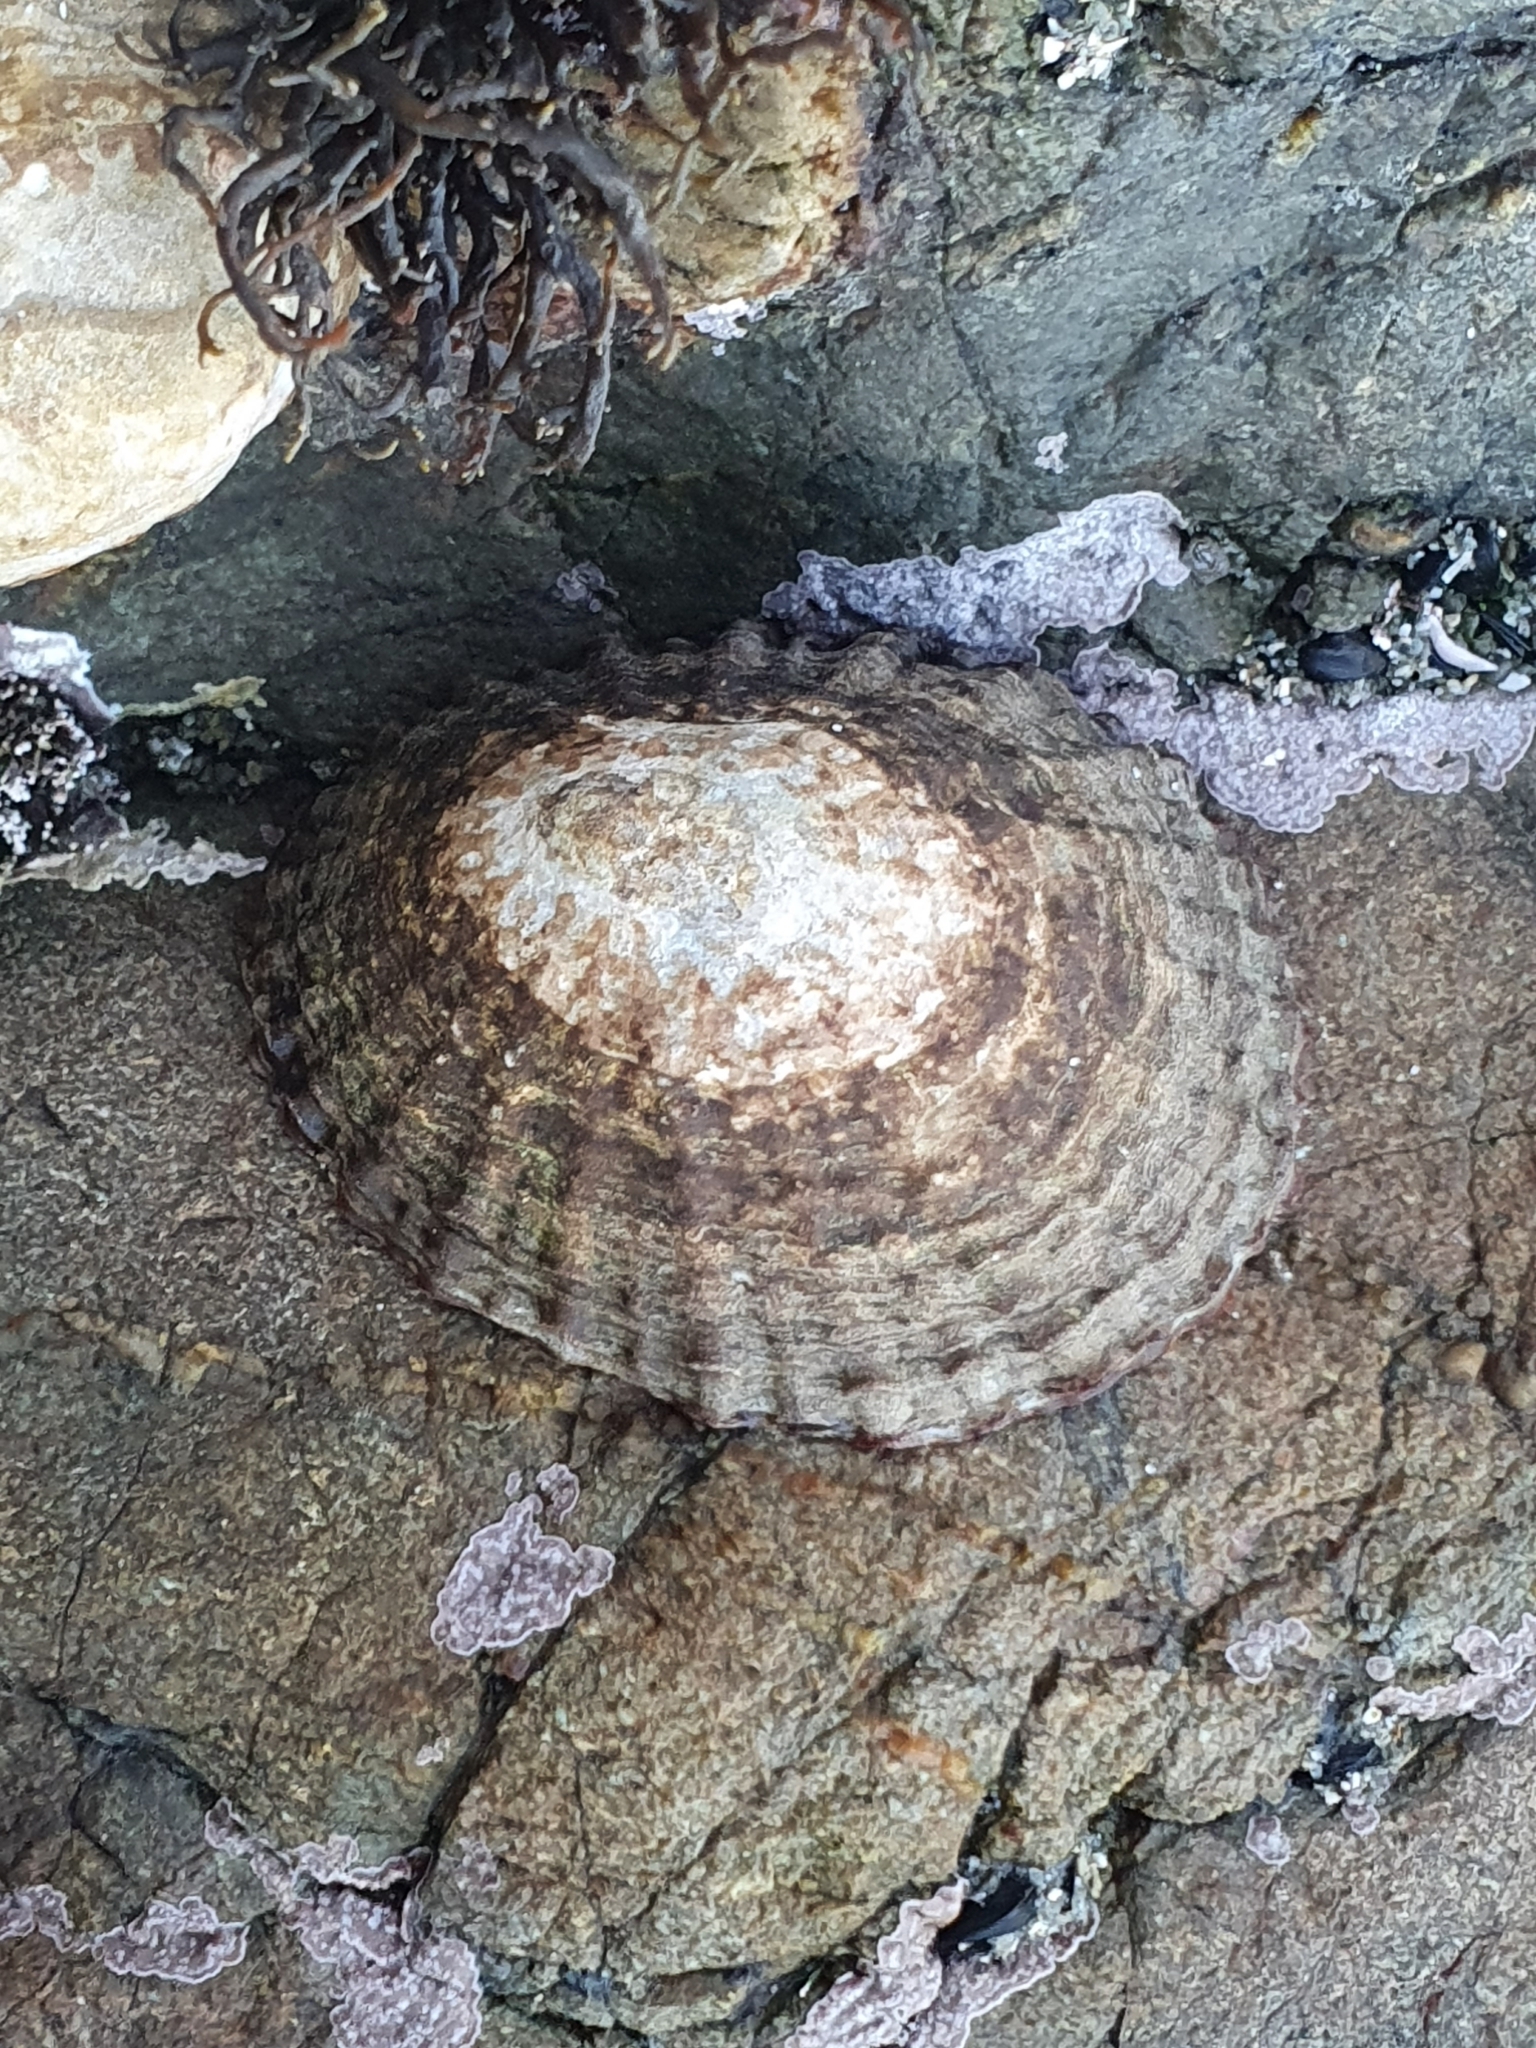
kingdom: Animalia
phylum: Mollusca
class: Gastropoda
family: Nacellidae
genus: Cellana
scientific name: Cellana denticulata
